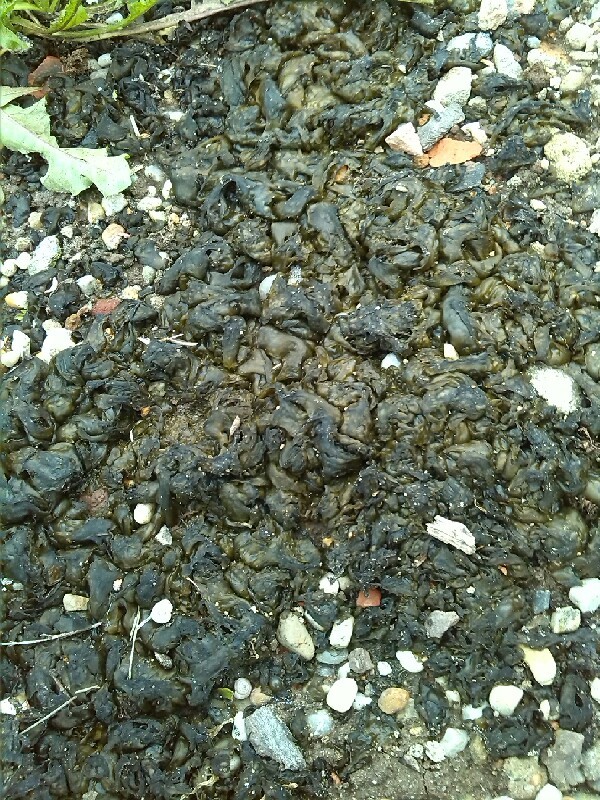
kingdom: Bacteria
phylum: Cyanobacteria
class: Cyanobacteriia
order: Cyanobacteriales
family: Nostocaceae
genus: Nostoc
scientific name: Nostoc commune
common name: Star jelly
